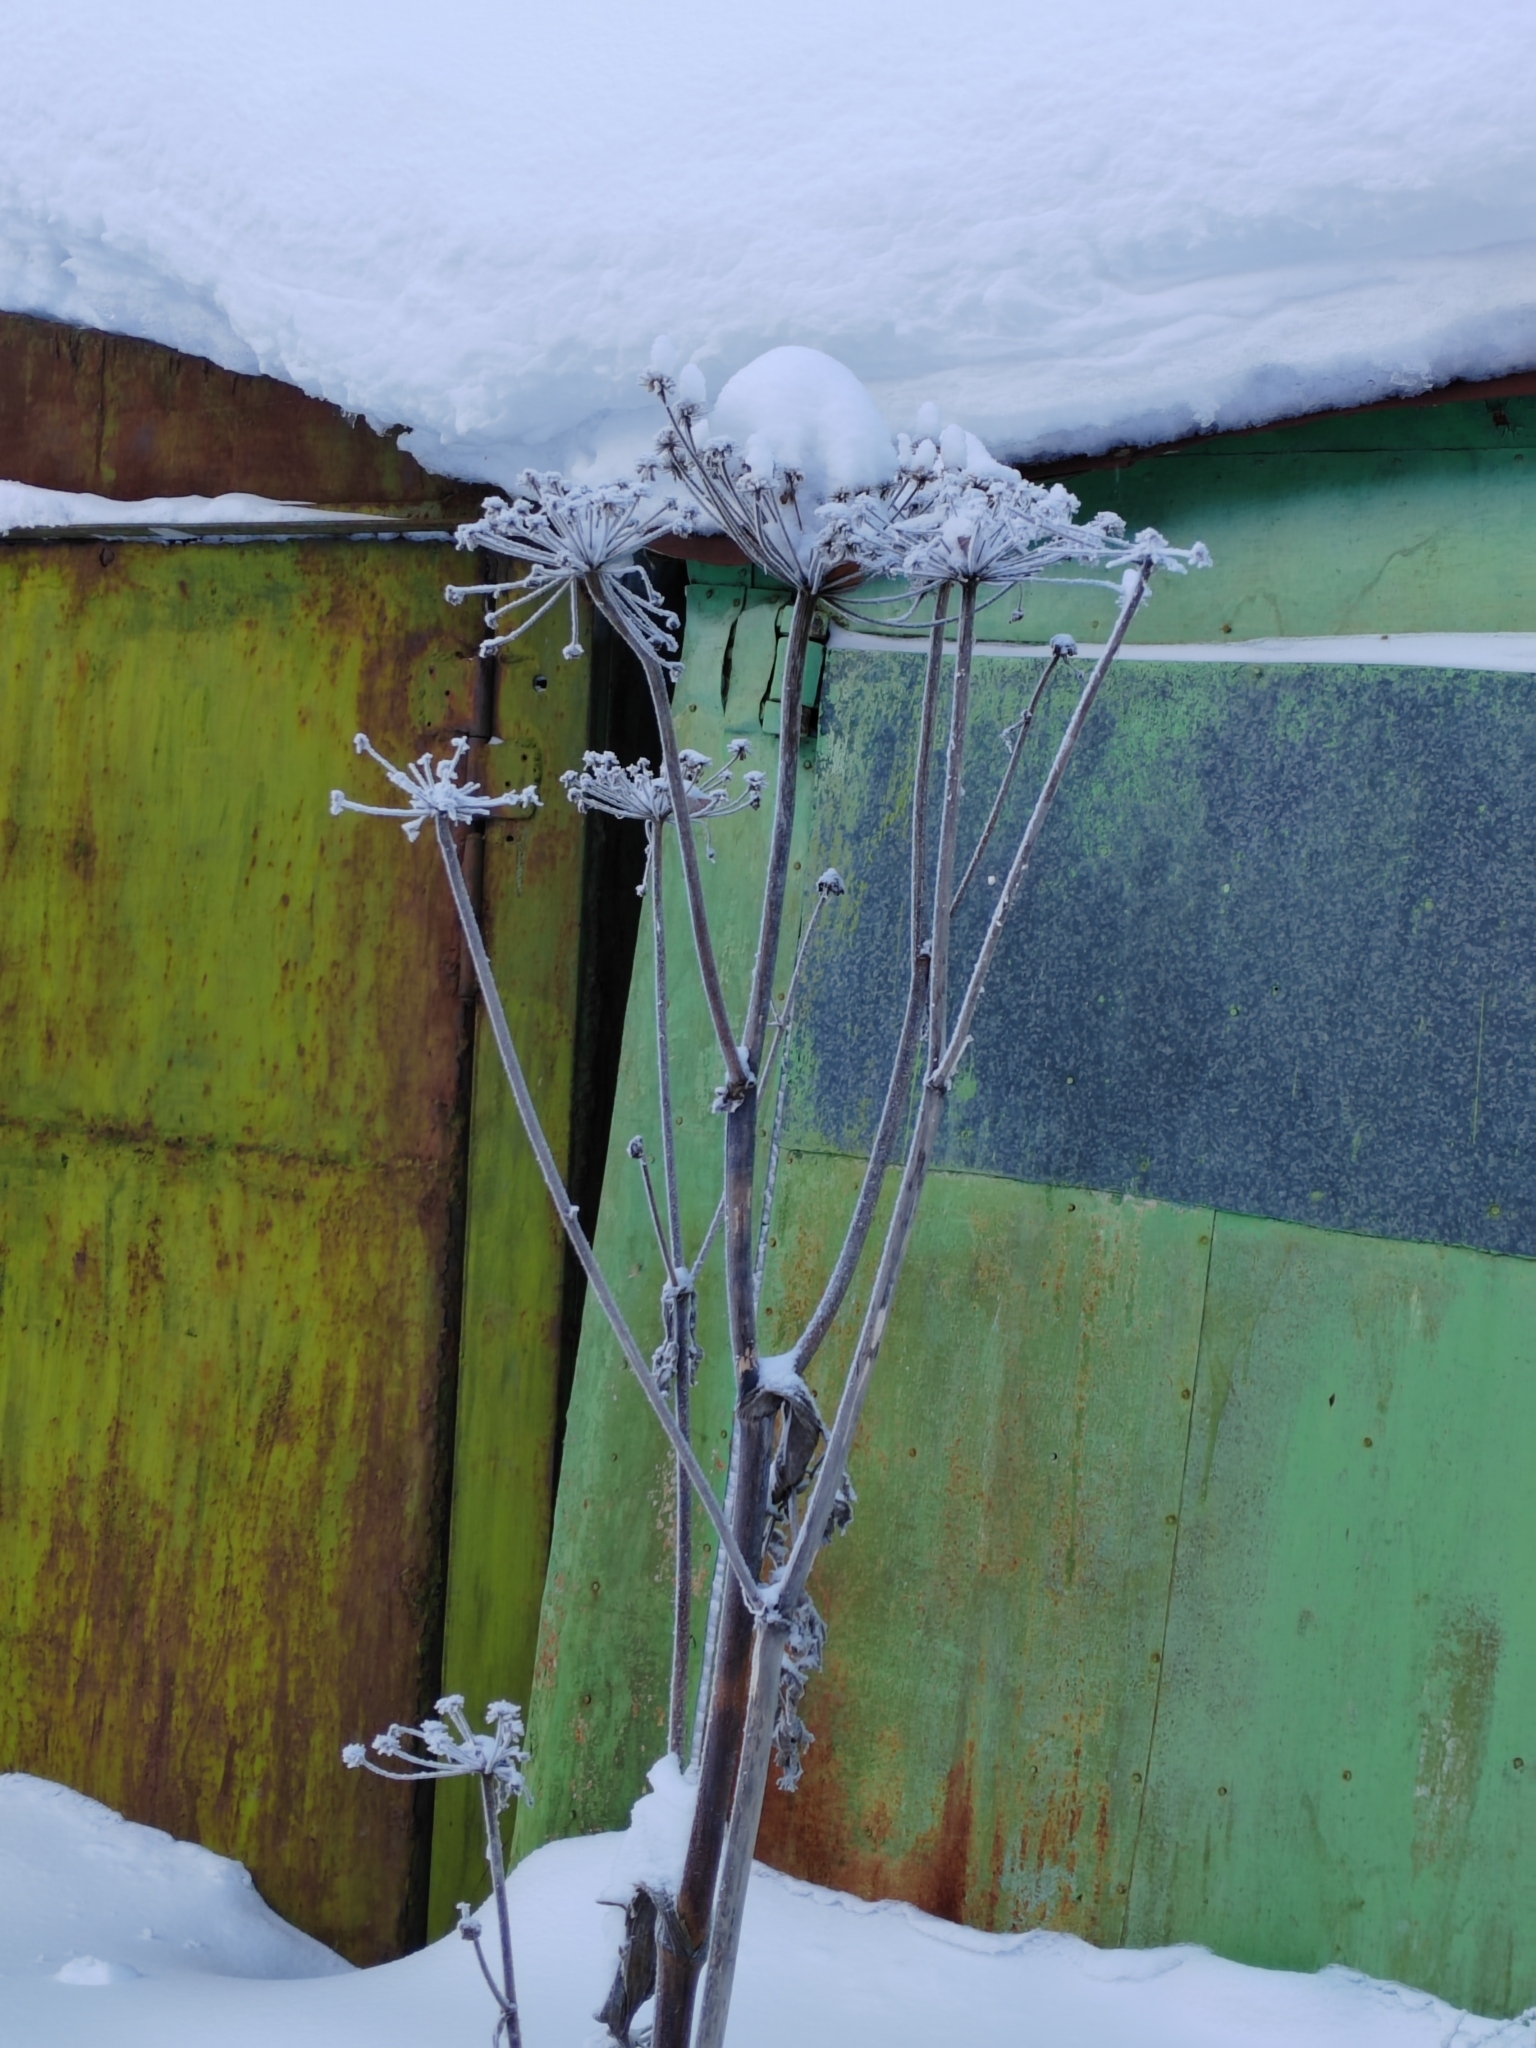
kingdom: Plantae
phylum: Tracheophyta
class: Magnoliopsida
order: Apiales
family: Apiaceae
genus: Angelica
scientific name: Angelica sylvestris
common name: Wild angelica
